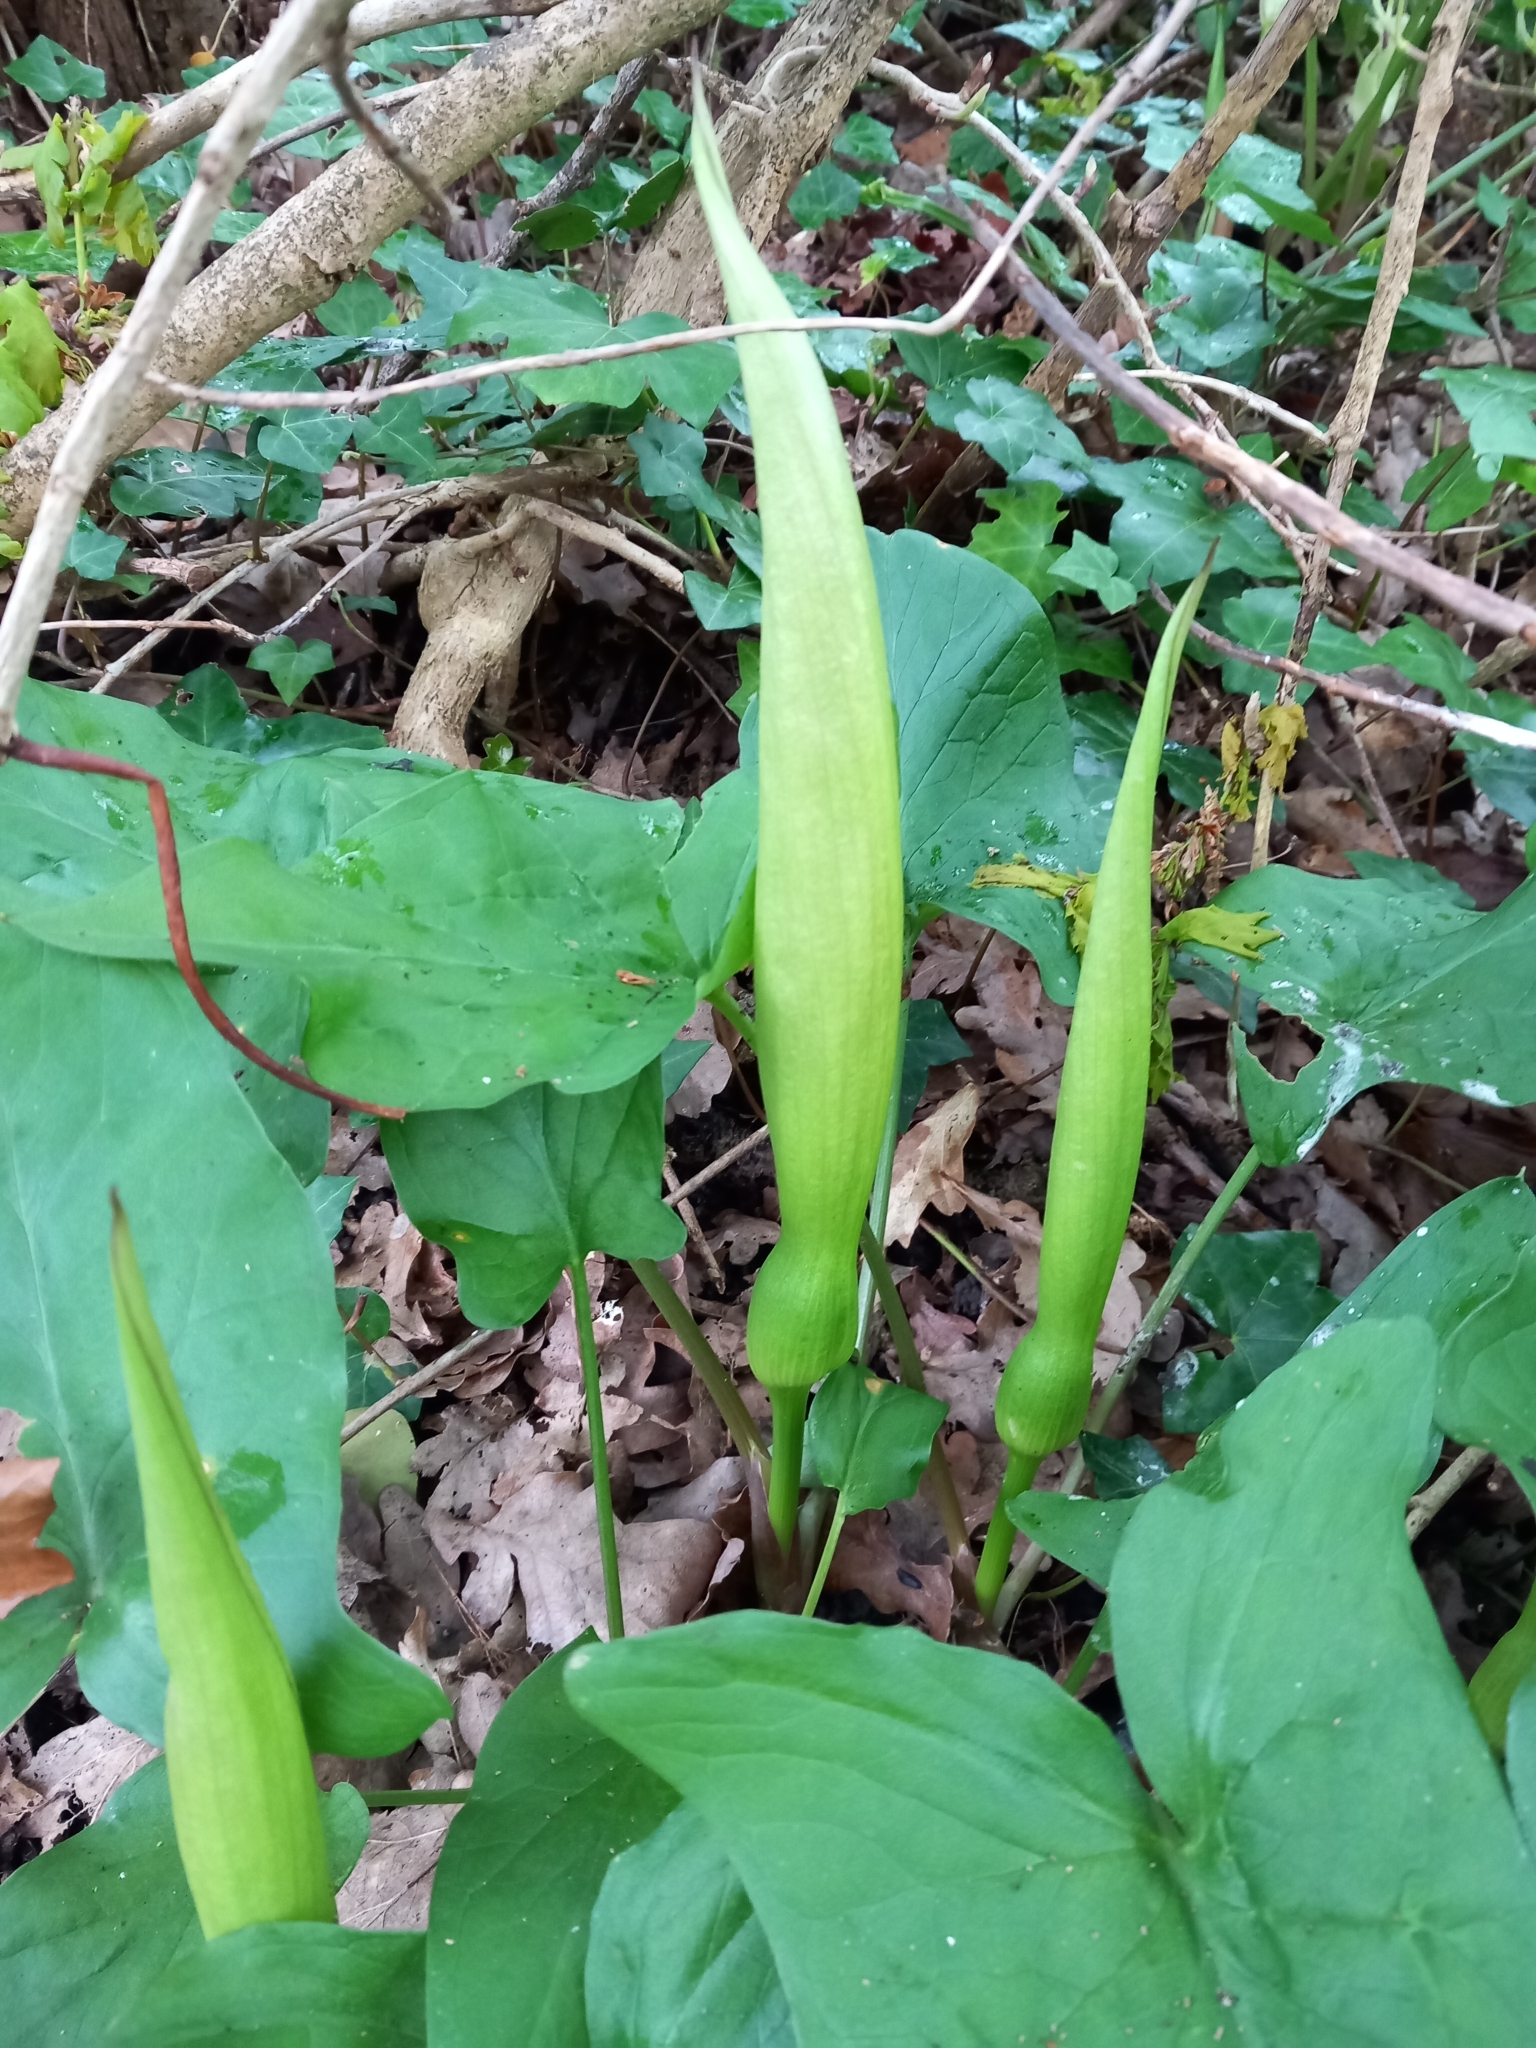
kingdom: Plantae
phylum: Tracheophyta
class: Liliopsida
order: Alismatales
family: Araceae
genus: Arum
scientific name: Arum maculatum
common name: Lords-and-ladies
